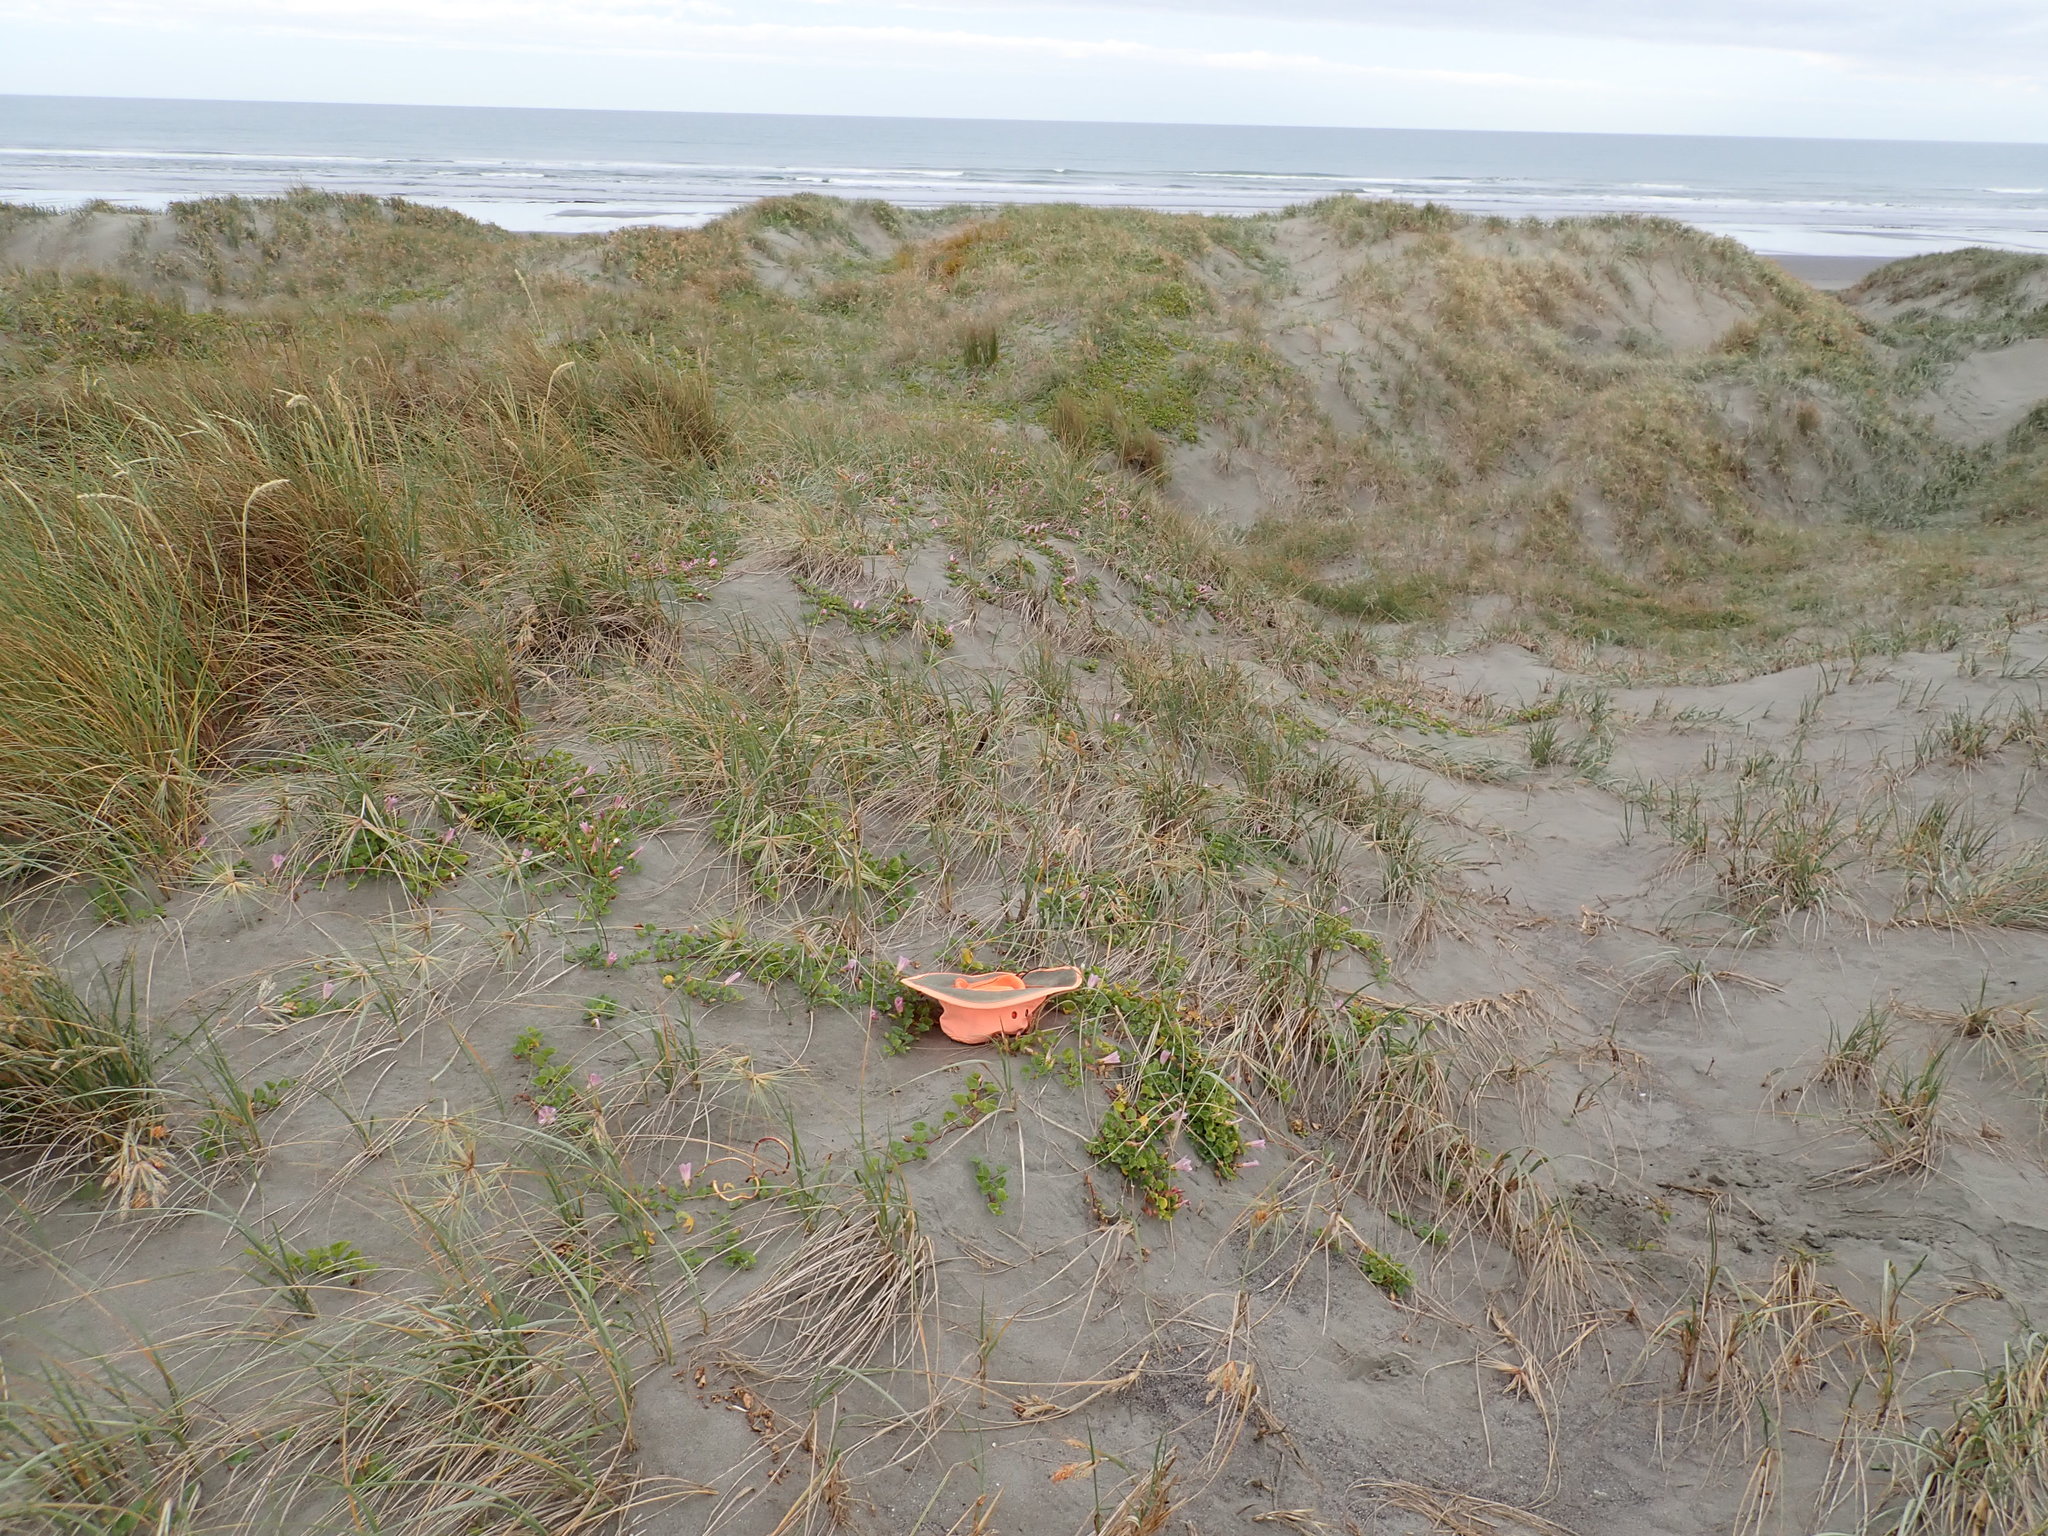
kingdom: Plantae
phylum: Tracheophyta
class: Magnoliopsida
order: Solanales
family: Convolvulaceae
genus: Calystegia
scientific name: Calystegia soldanella
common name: Sea bindweed
